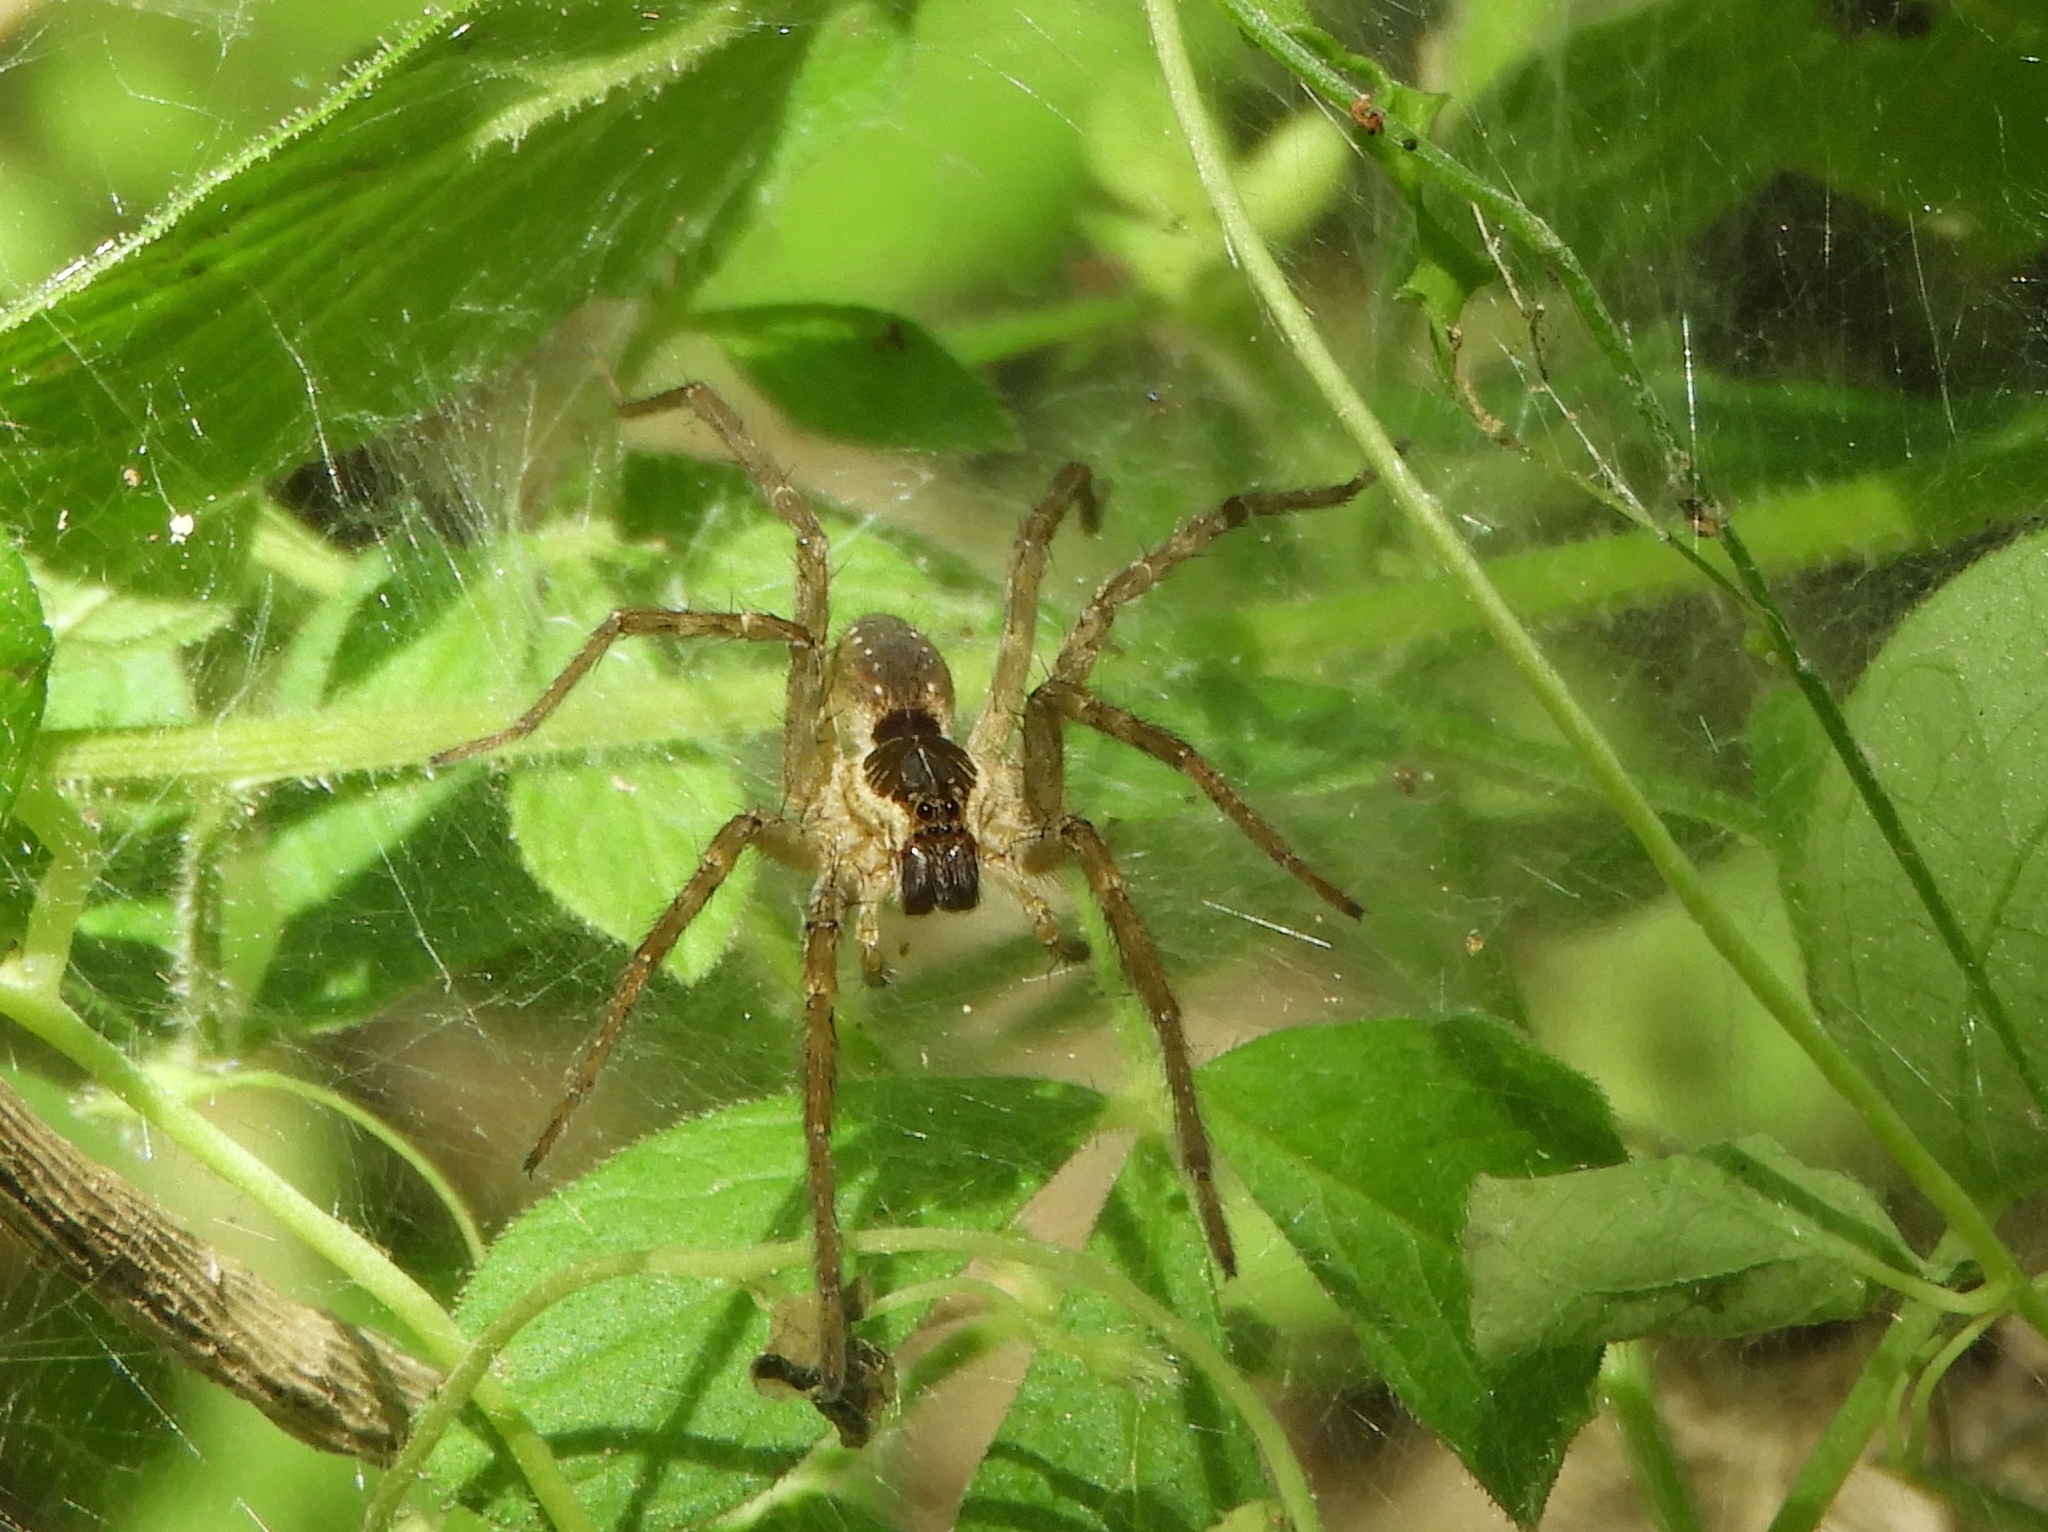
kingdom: Animalia
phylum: Arthropoda
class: Arachnida
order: Araneae
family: Lycosidae
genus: Sosippus
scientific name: Sosippus californicus
